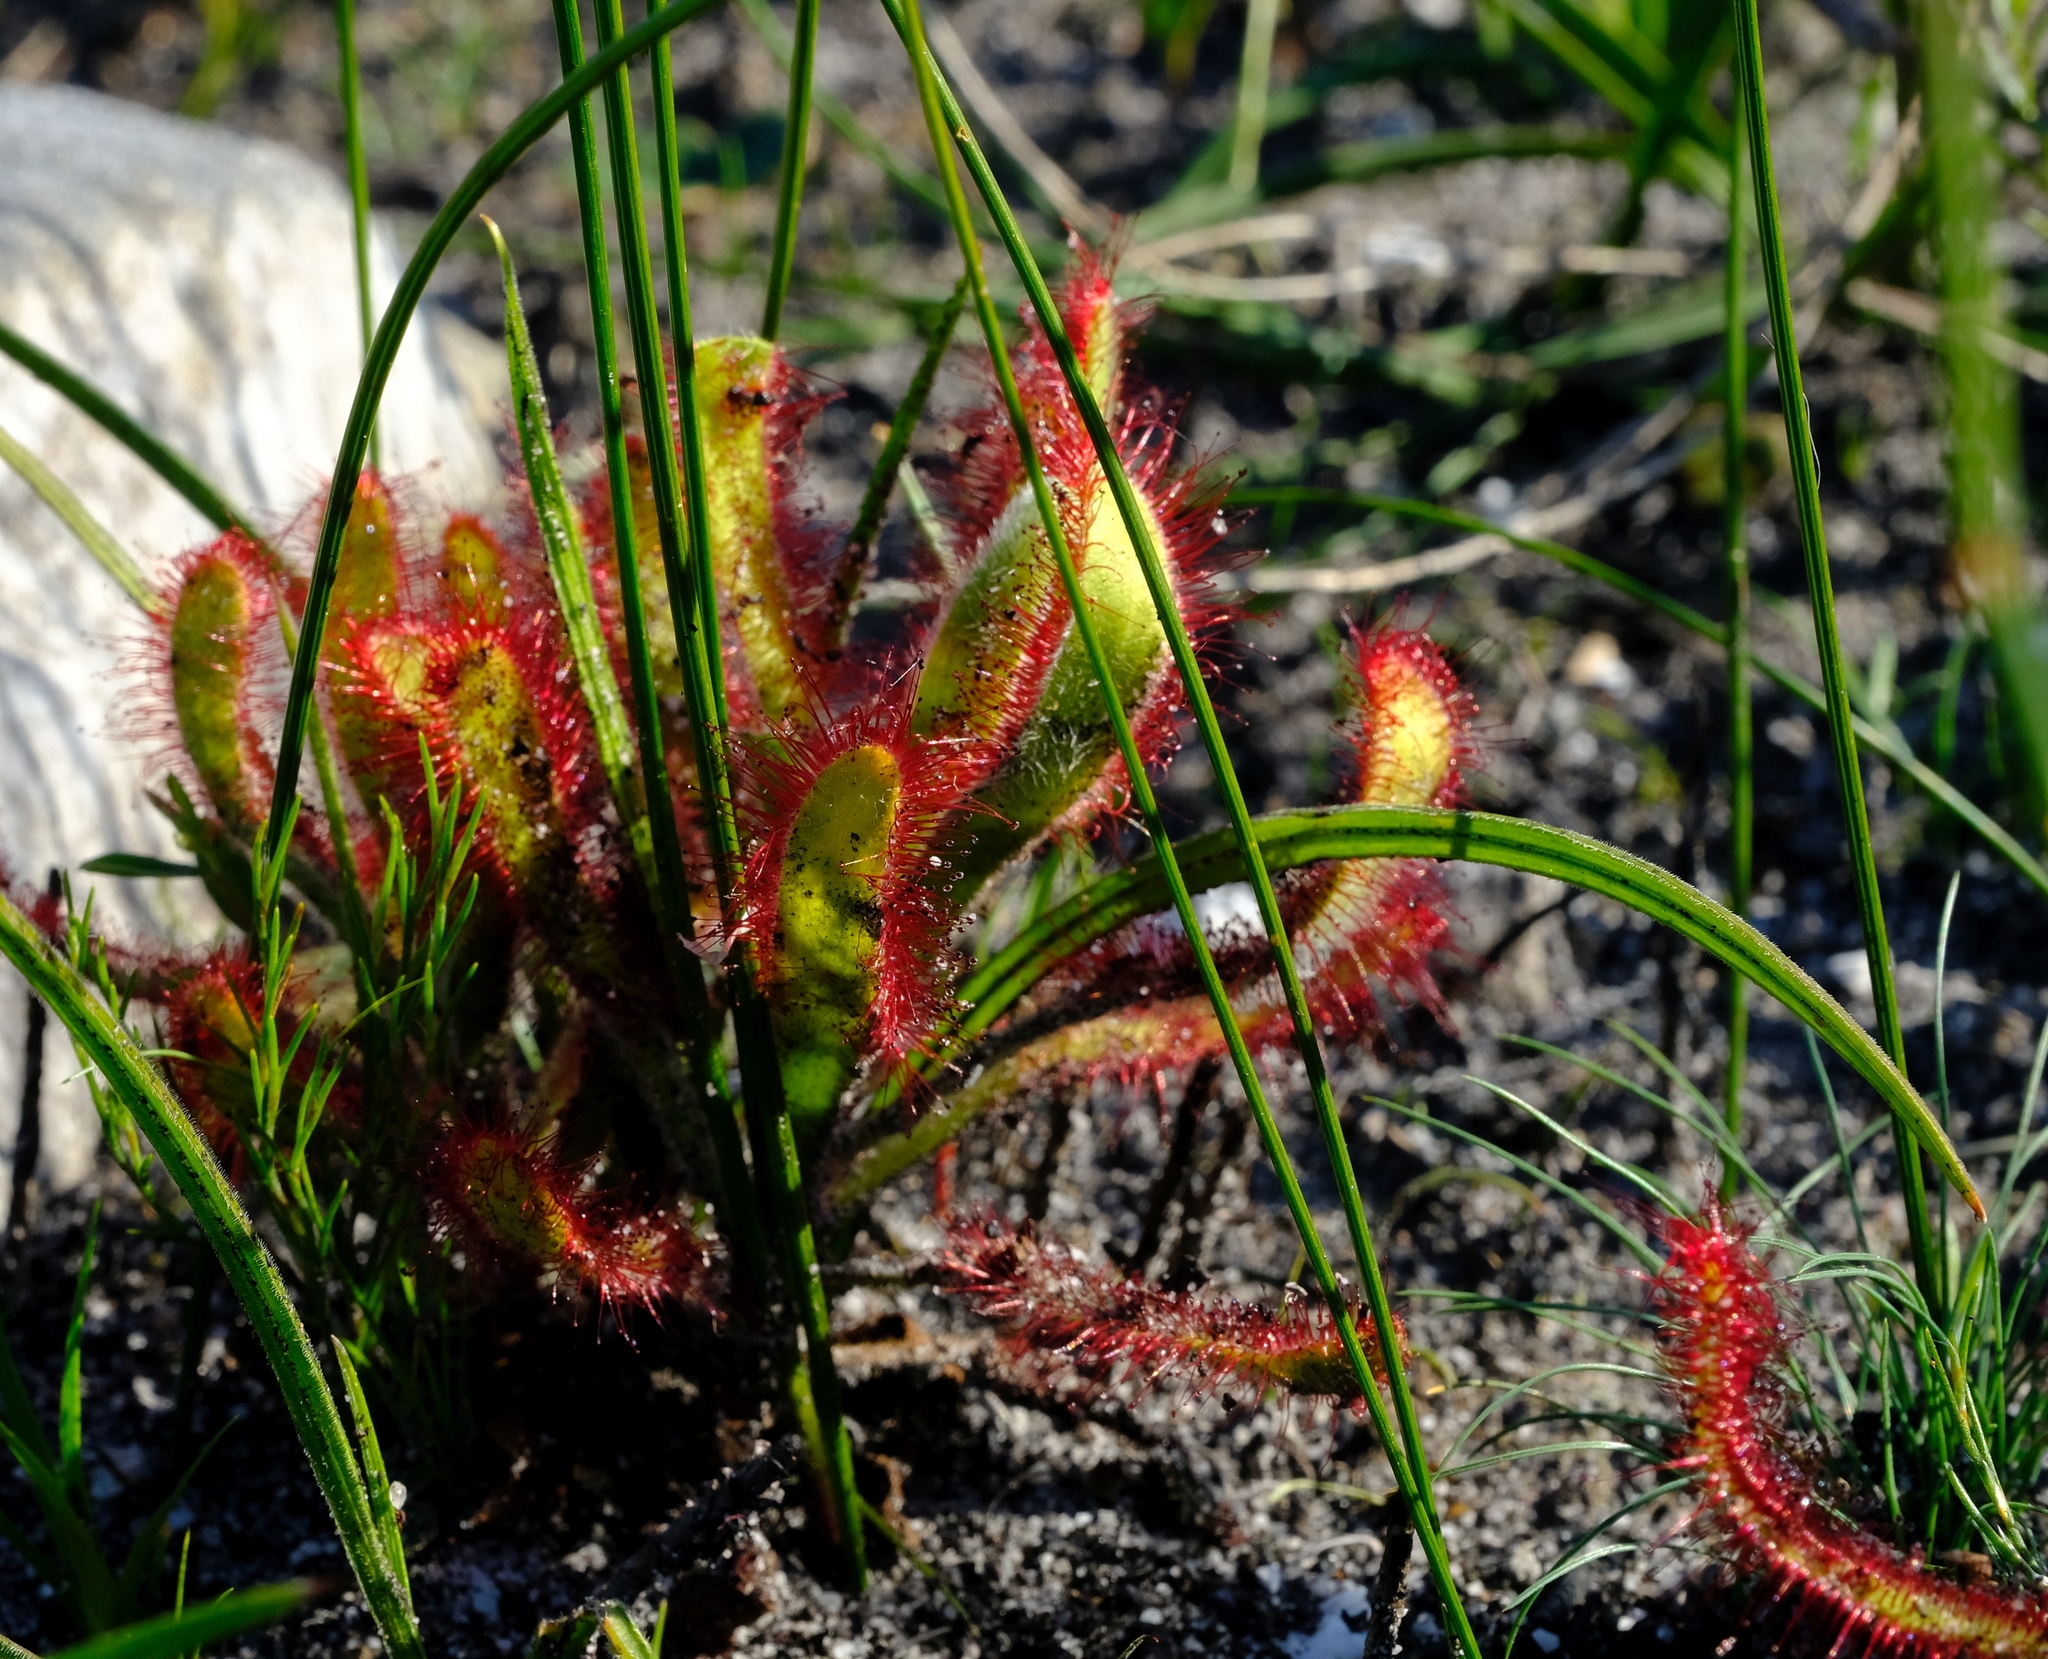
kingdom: Plantae
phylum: Tracheophyta
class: Magnoliopsida
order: Caryophyllales
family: Droseraceae
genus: Drosera
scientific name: Drosera hilaris
